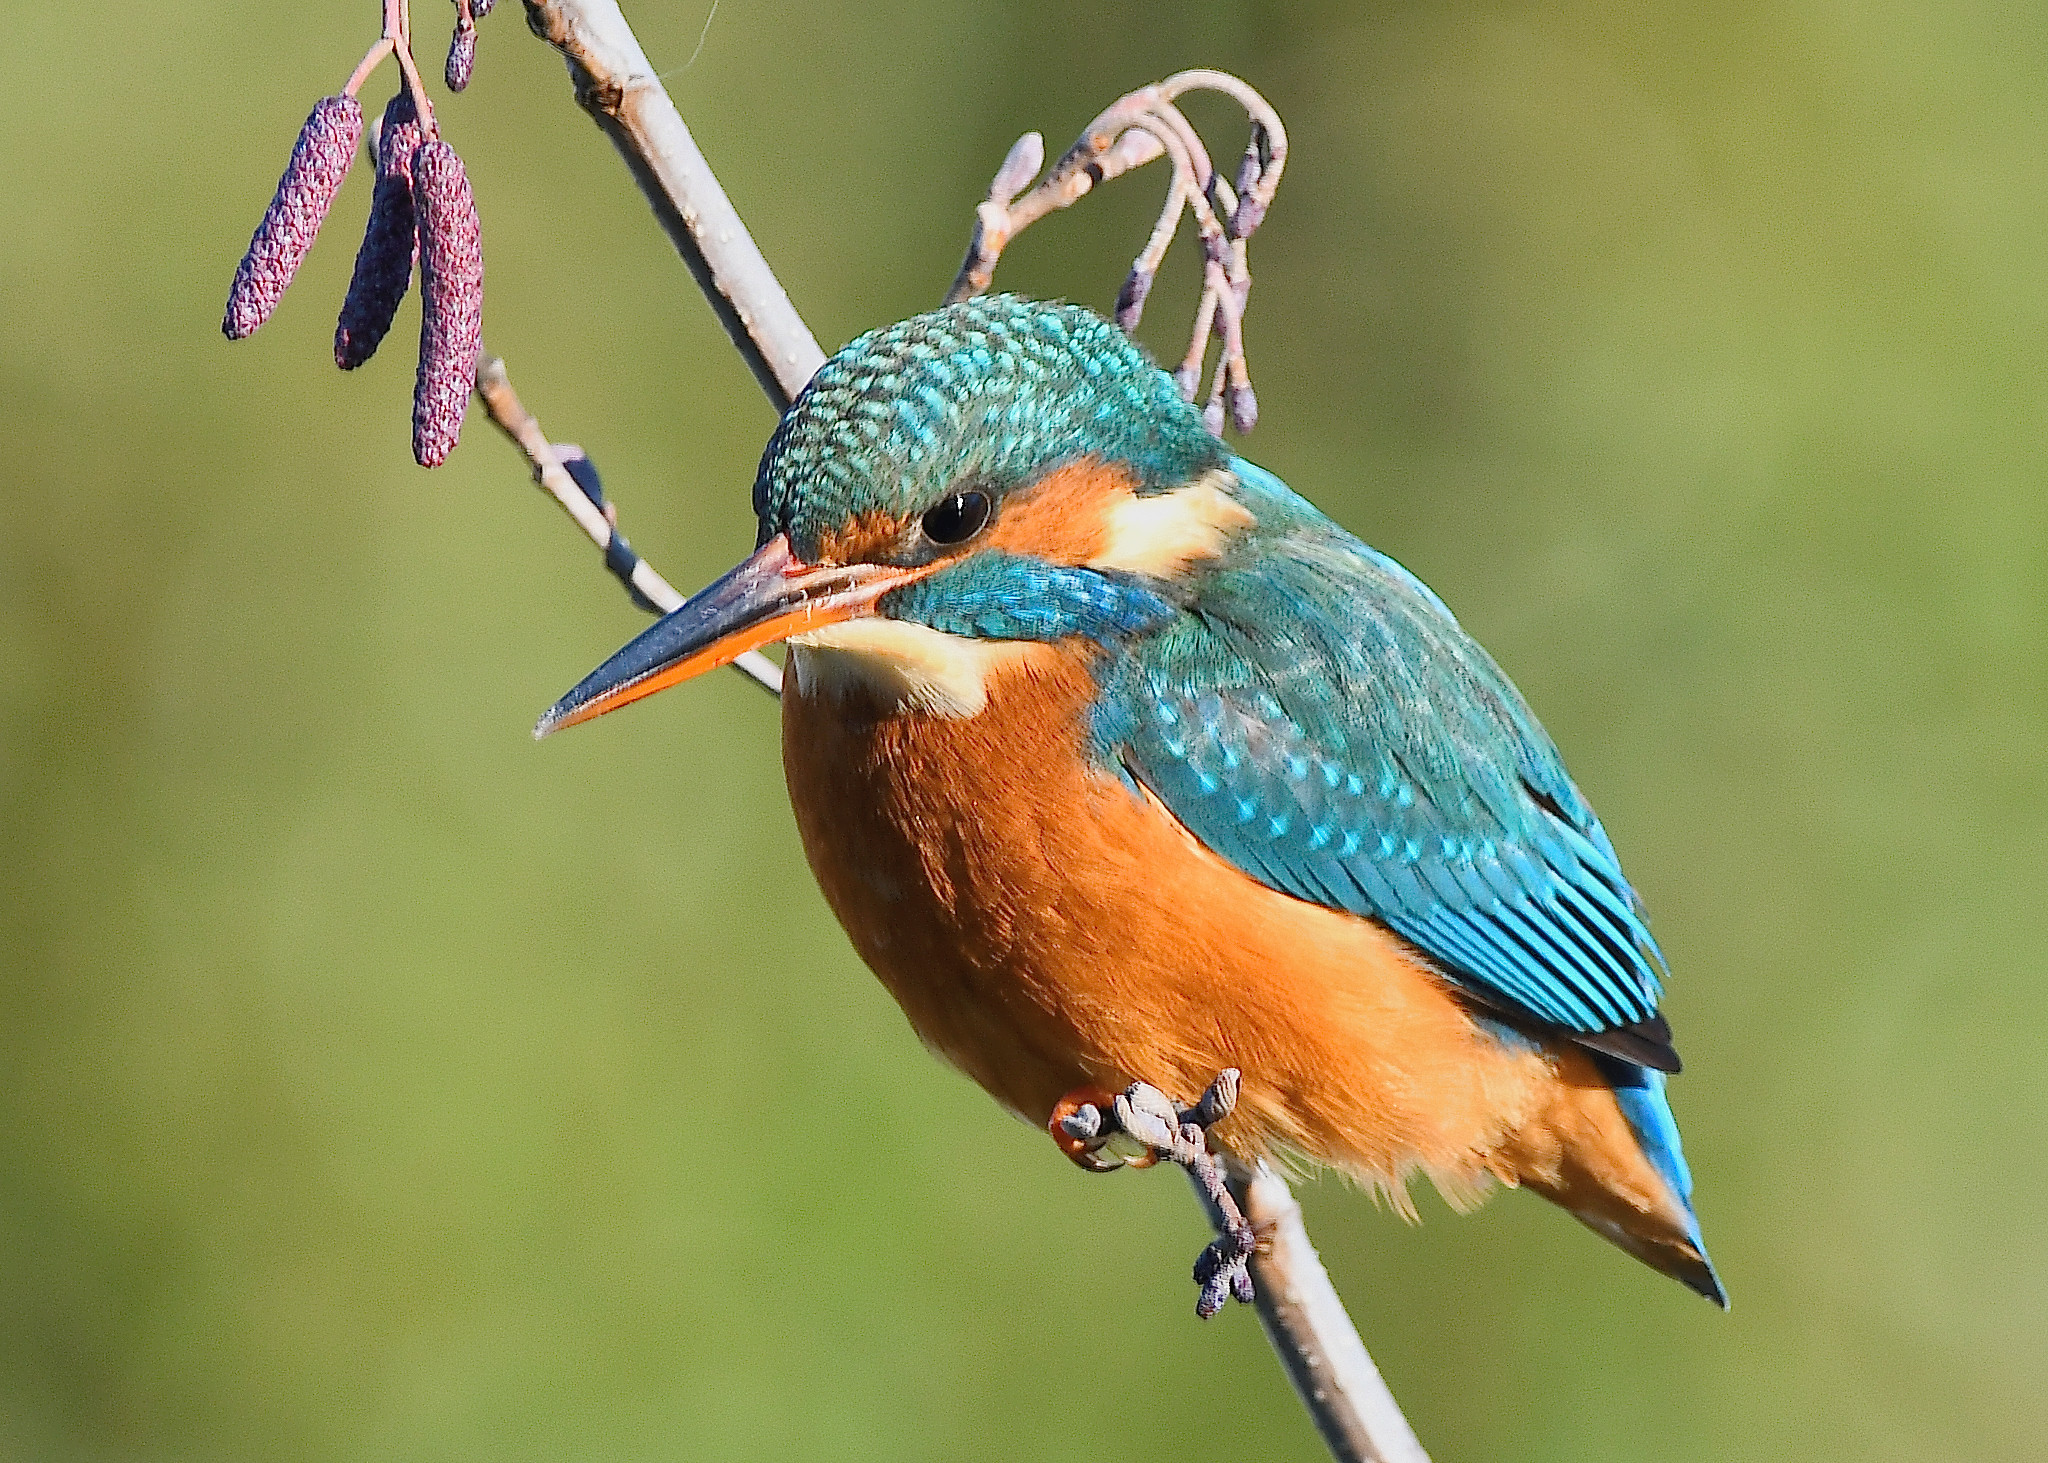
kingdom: Animalia
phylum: Chordata
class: Aves
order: Coraciiformes
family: Alcedinidae
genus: Alcedo
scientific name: Alcedo atthis
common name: Common kingfisher
